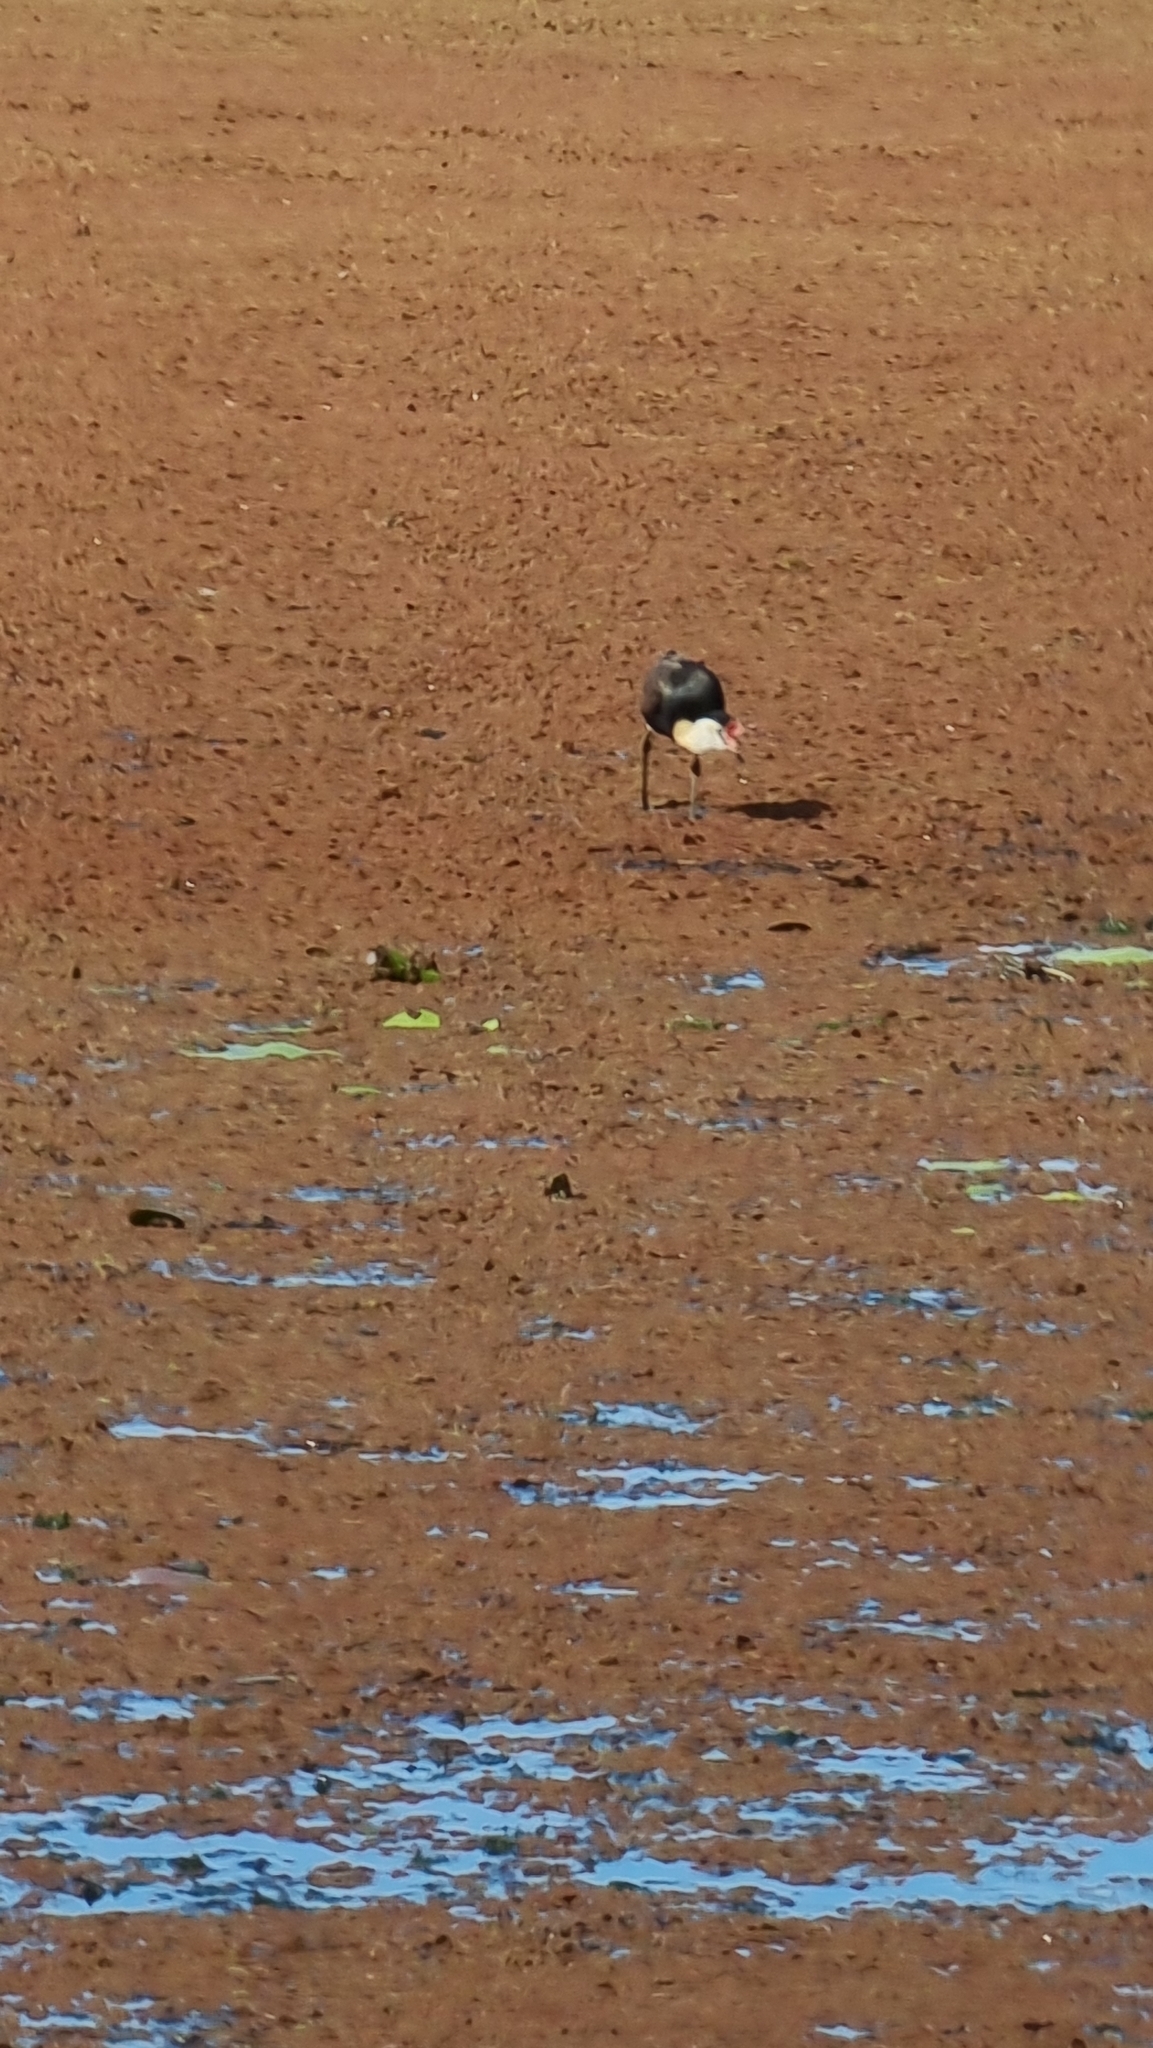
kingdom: Animalia
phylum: Chordata
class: Aves
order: Charadriiformes
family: Jacanidae
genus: Irediparra
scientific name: Irediparra gallinacea
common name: Comb-crested jacana
